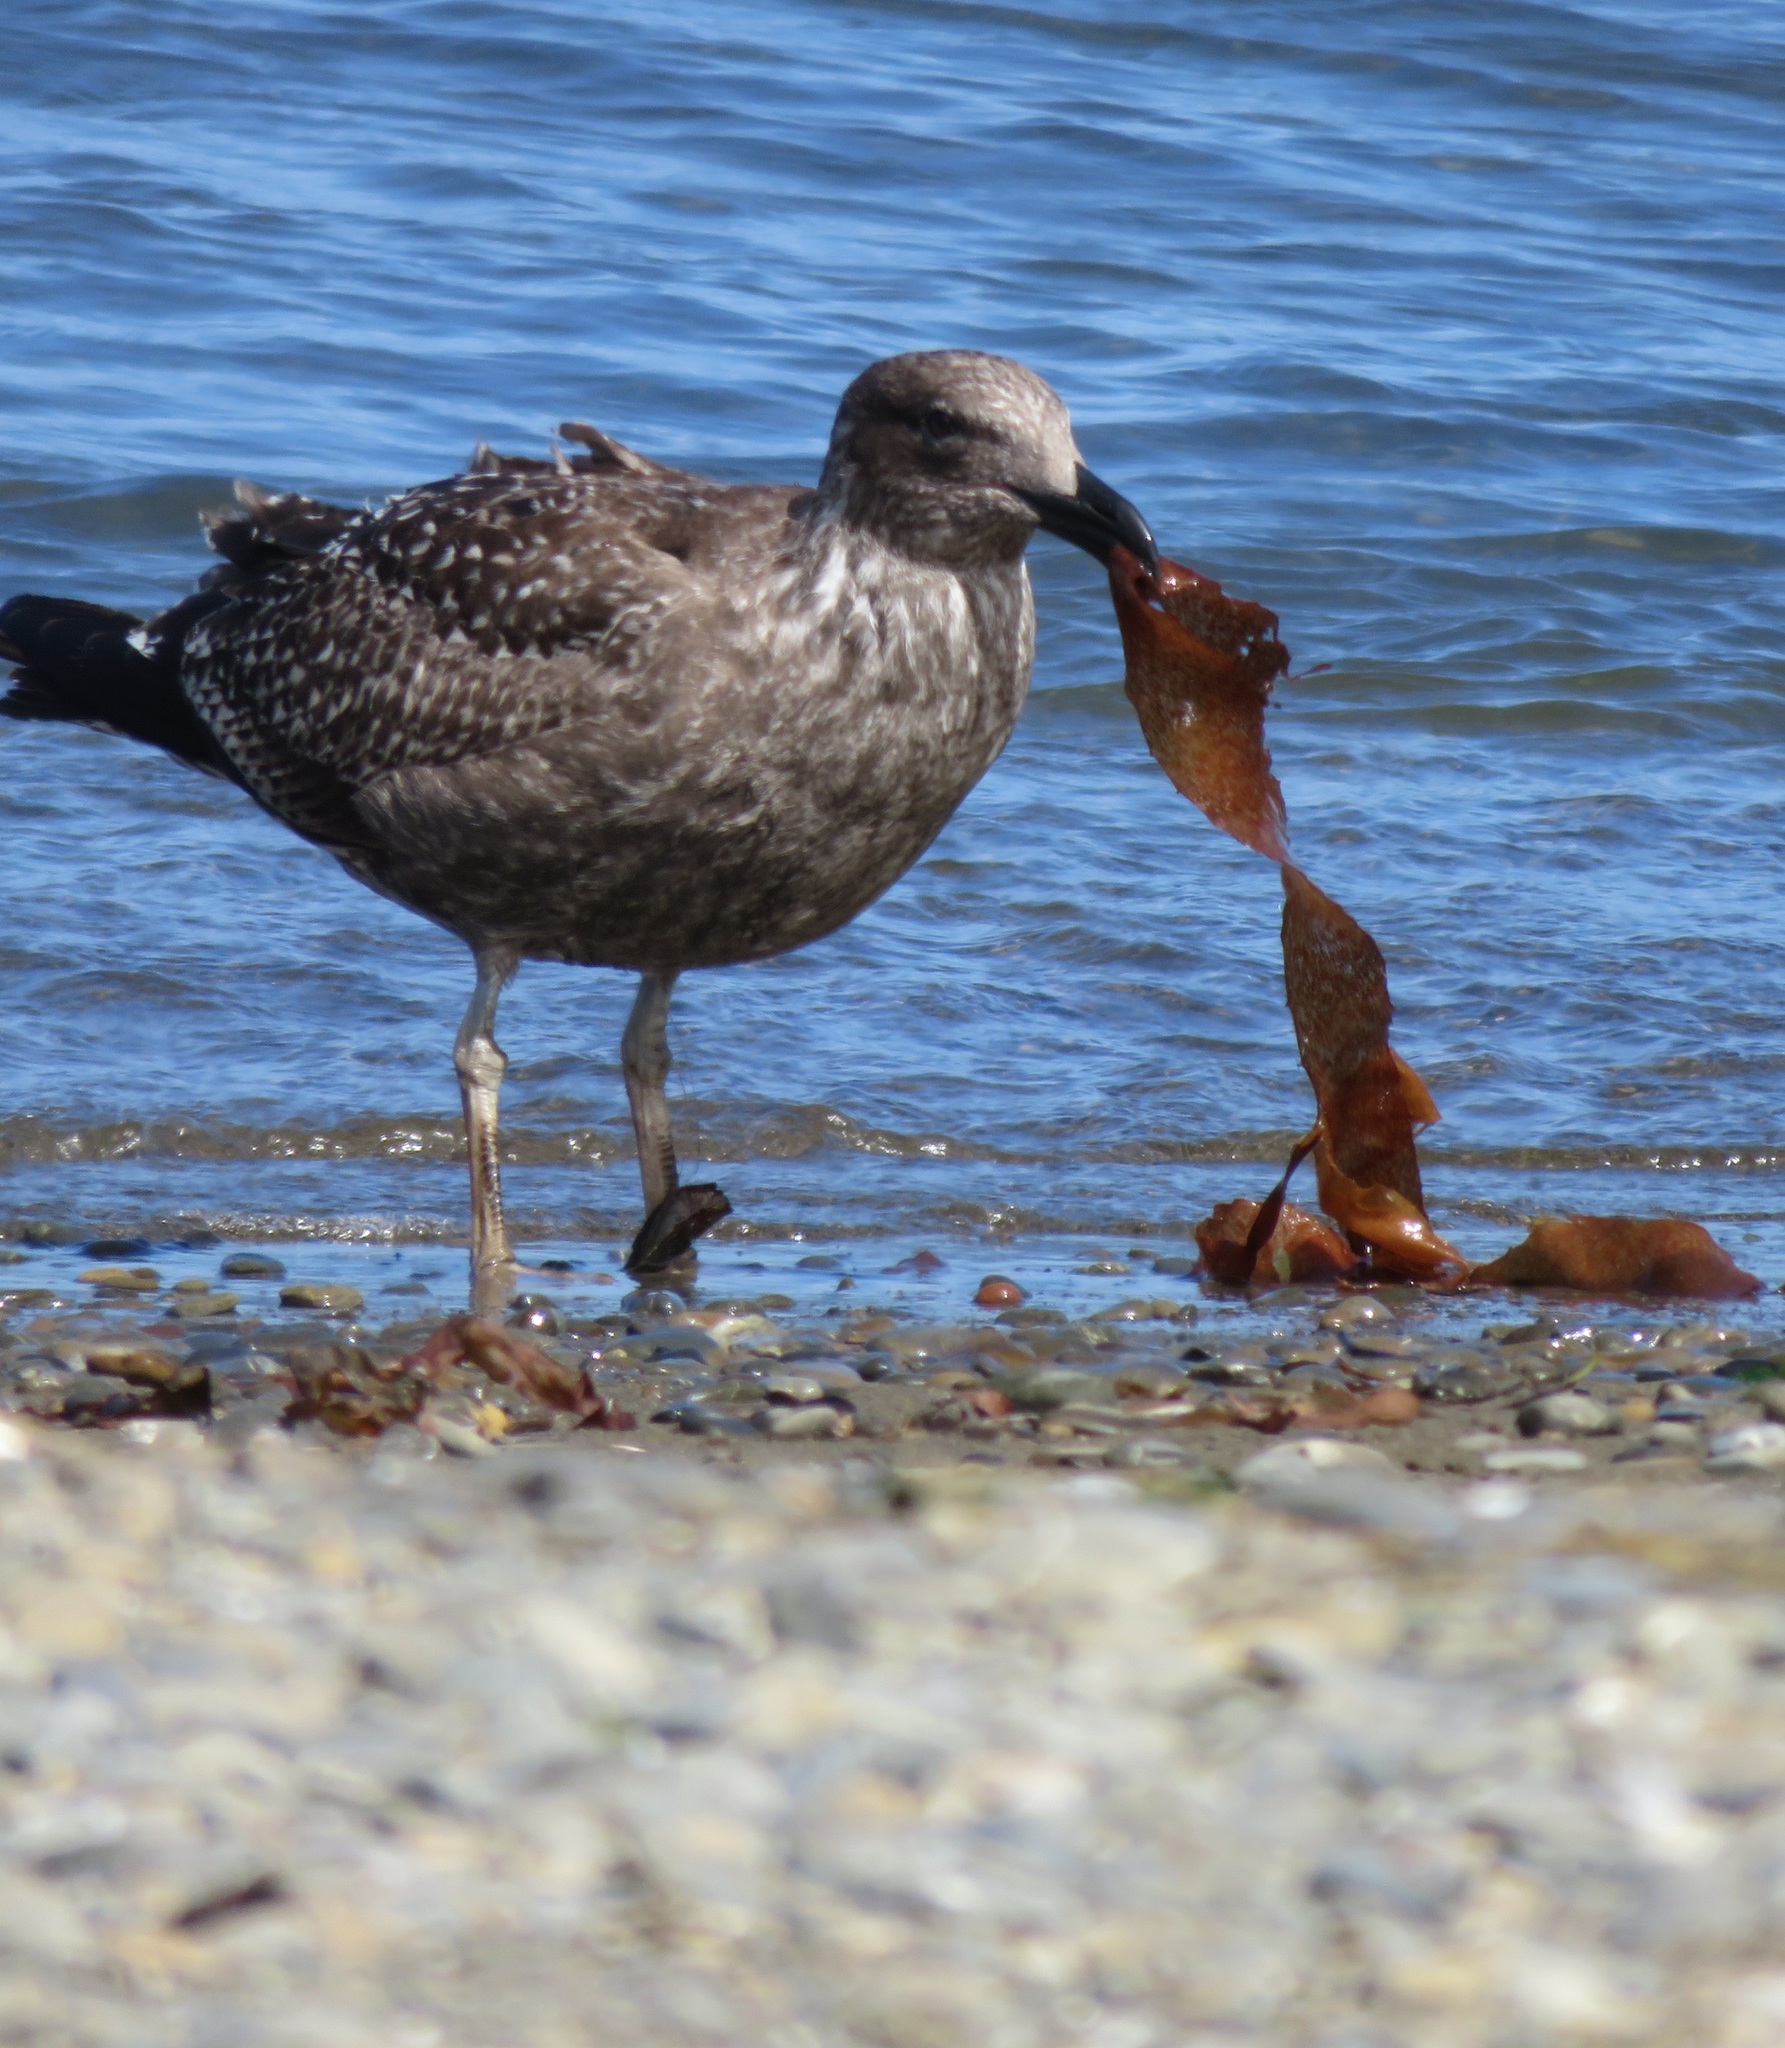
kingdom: Animalia
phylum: Chordata
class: Aves
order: Charadriiformes
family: Laridae
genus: Larus
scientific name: Larus dominicanus
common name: Kelp gull
